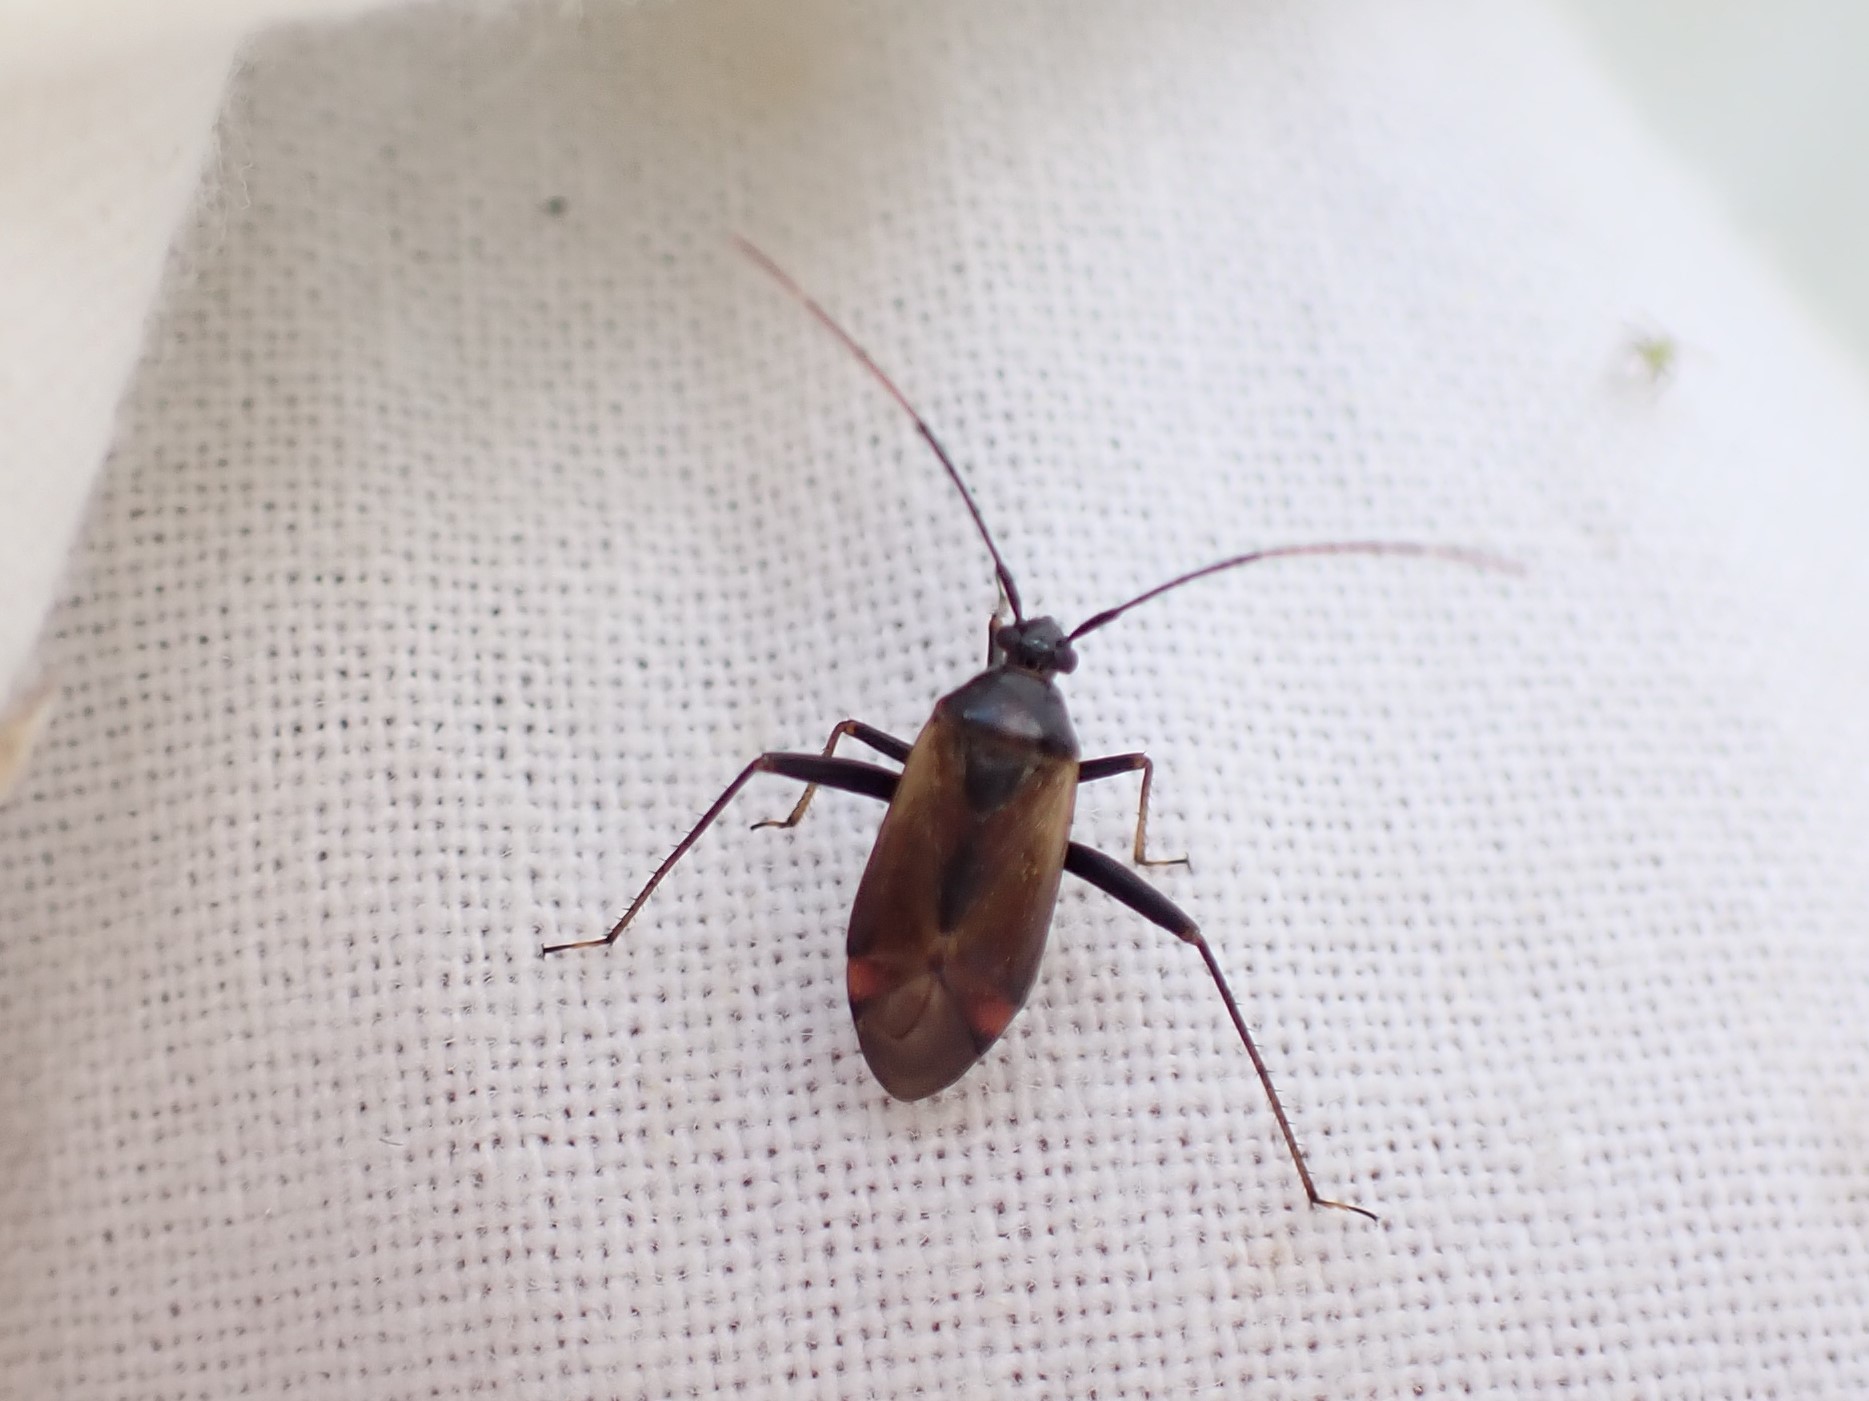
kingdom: Animalia
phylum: Arthropoda
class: Insecta
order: Hemiptera
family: Miridae
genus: Adelphocoris
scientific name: Adelphocoris seticornis
